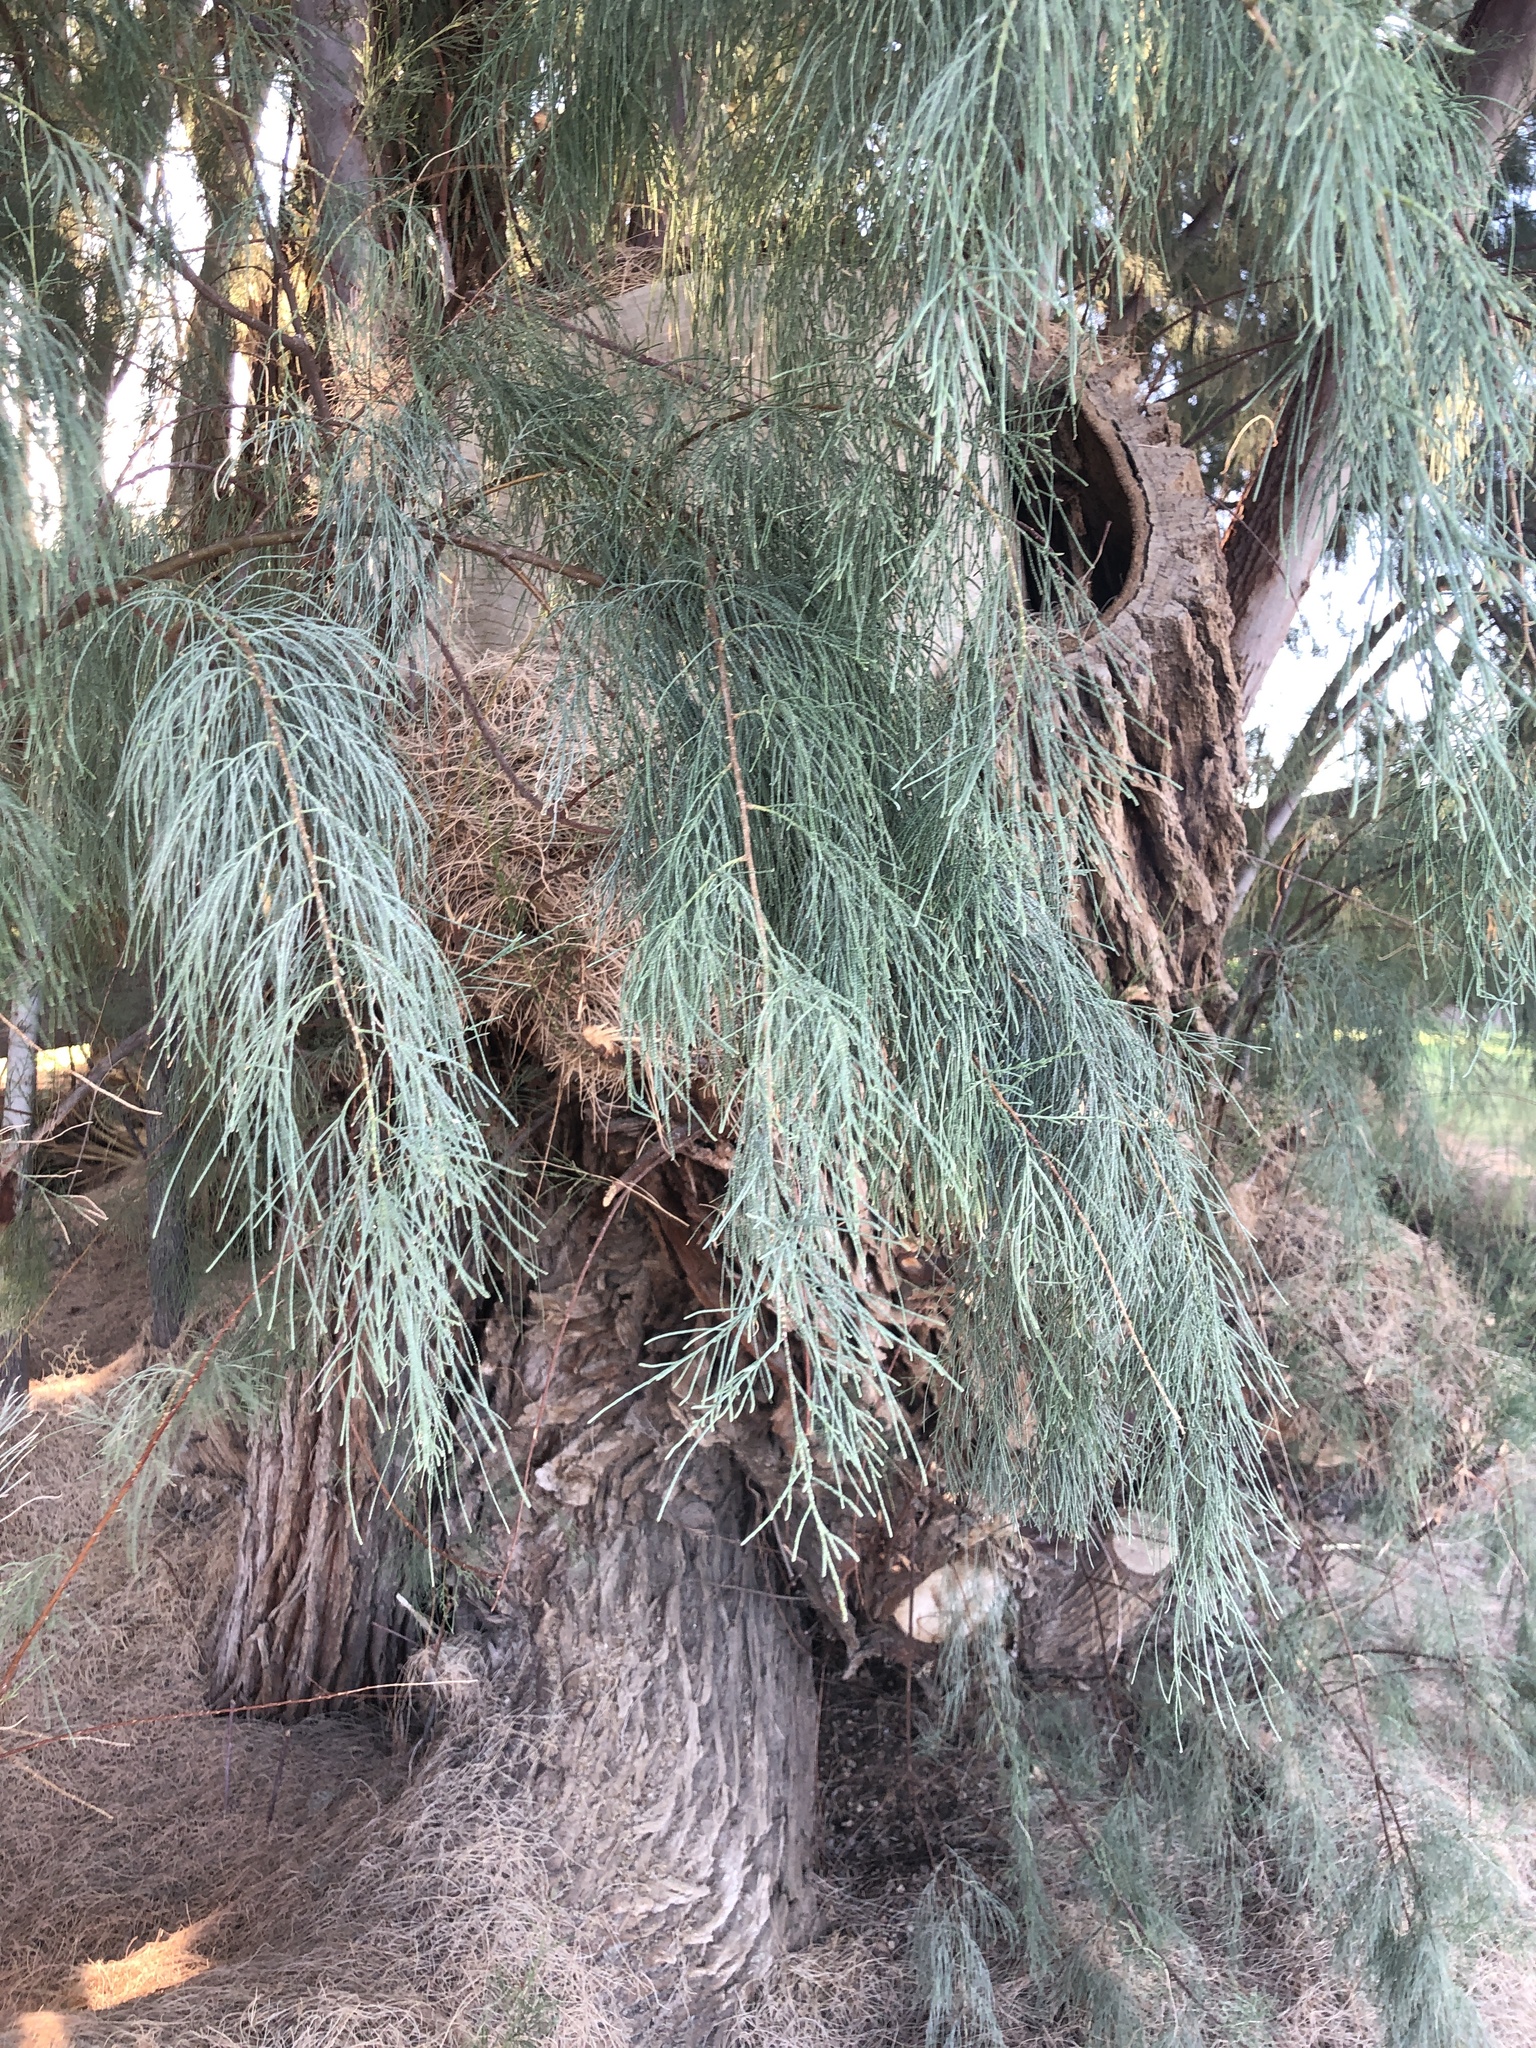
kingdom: Plantae
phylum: Tracheophyta
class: Magnoliopsida
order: Caryophyllales
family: Tamaricaceae
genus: Tamarix
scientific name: Tamarix aphylla
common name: Athel tamarisk
